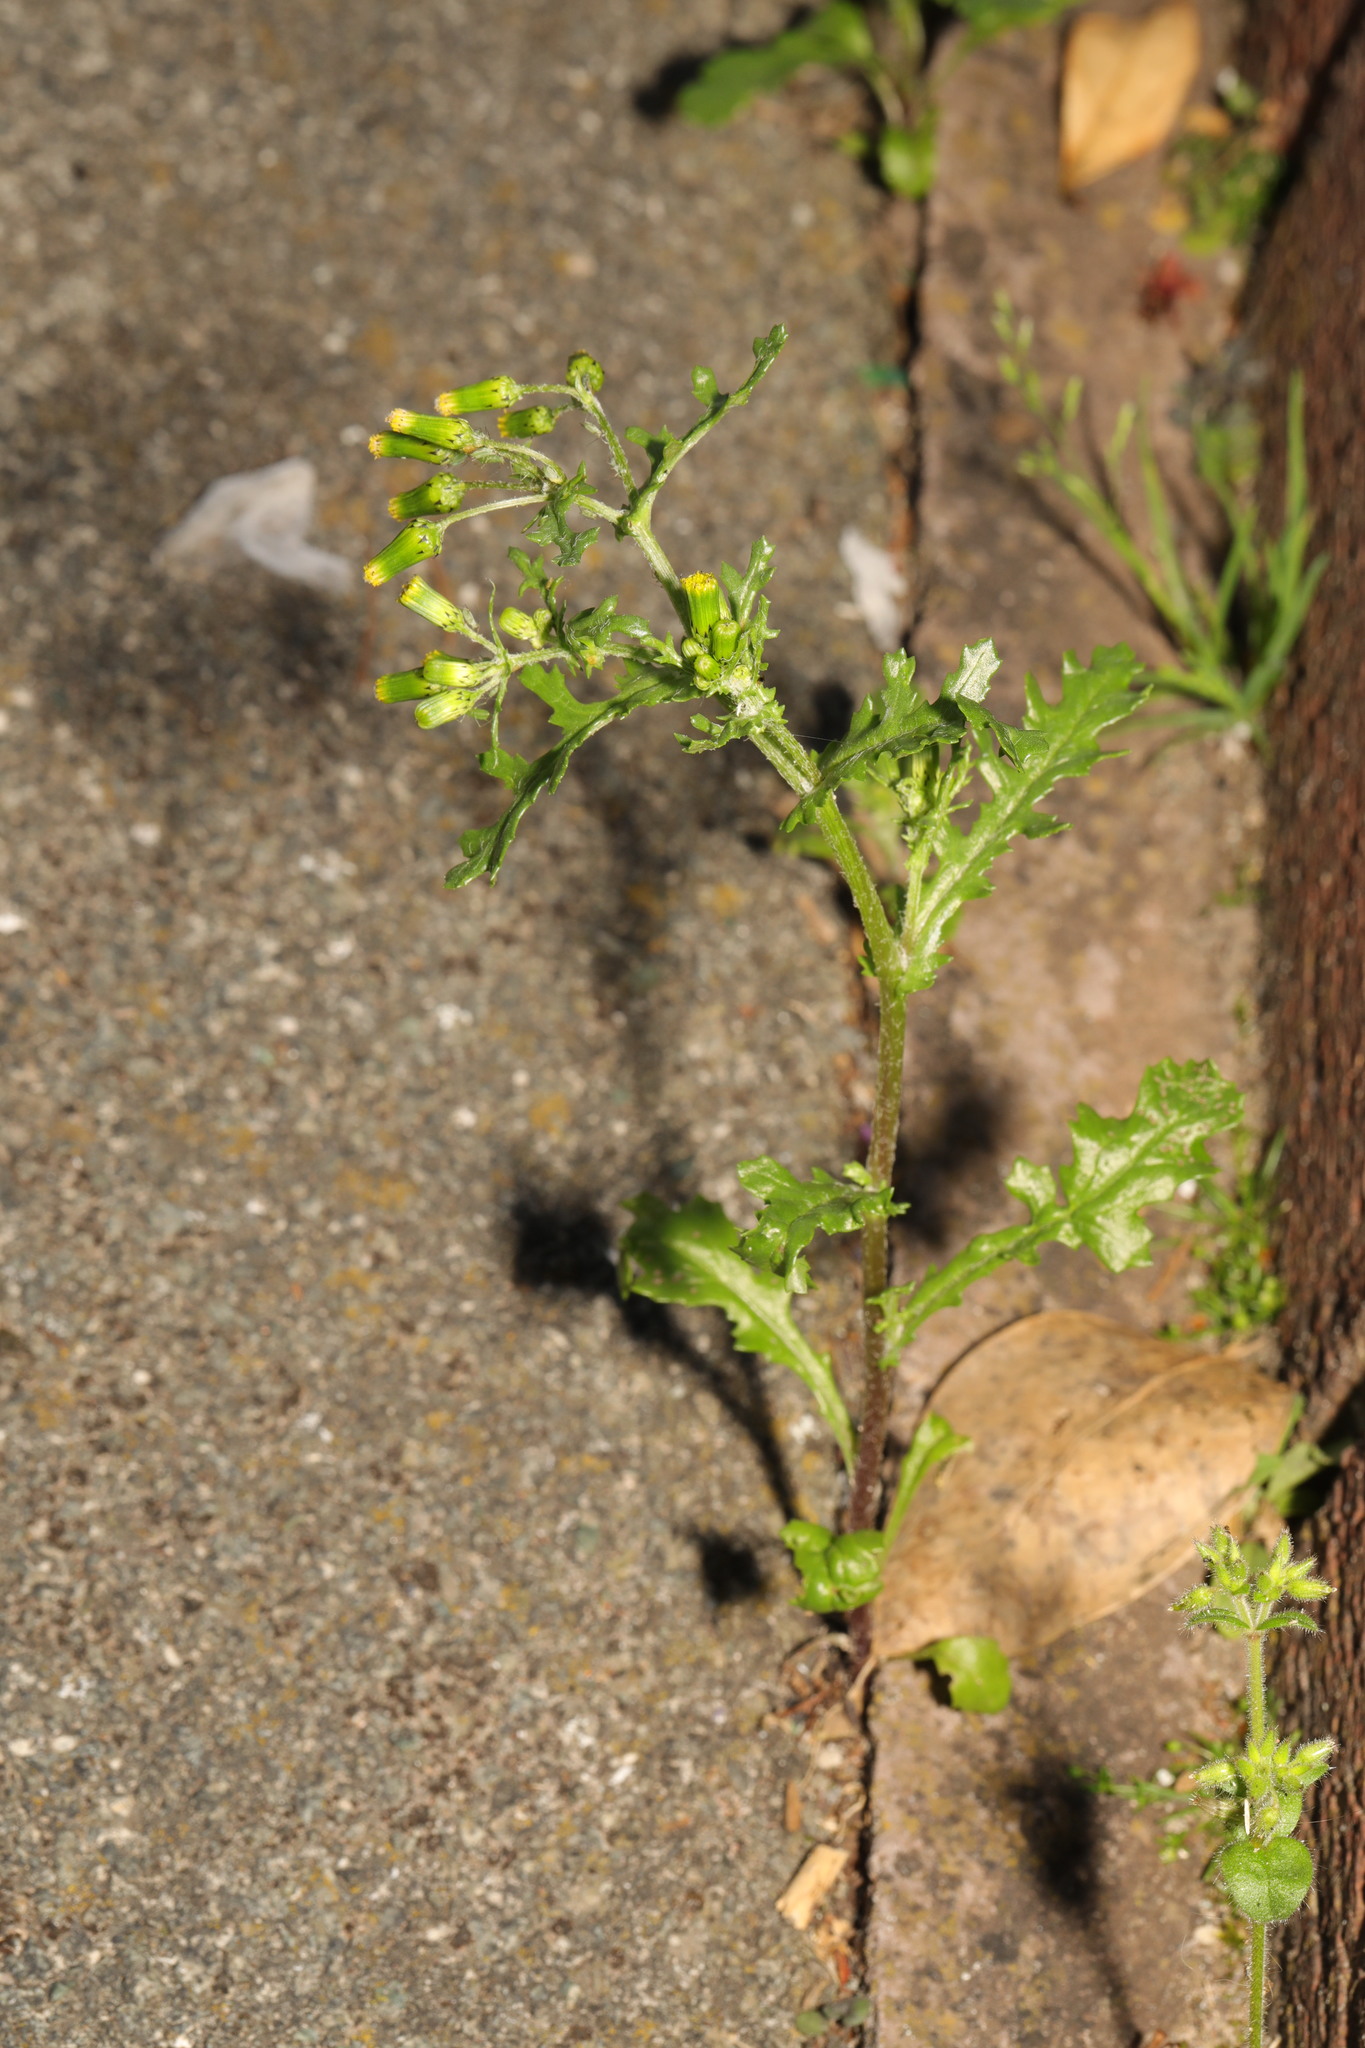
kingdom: Plantae
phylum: Tracheophyta
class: Magnoliopsida
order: Asterales
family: Asteraceae
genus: Senecio
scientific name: Senecio vulgaris
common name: Old-man-in-the-spring
